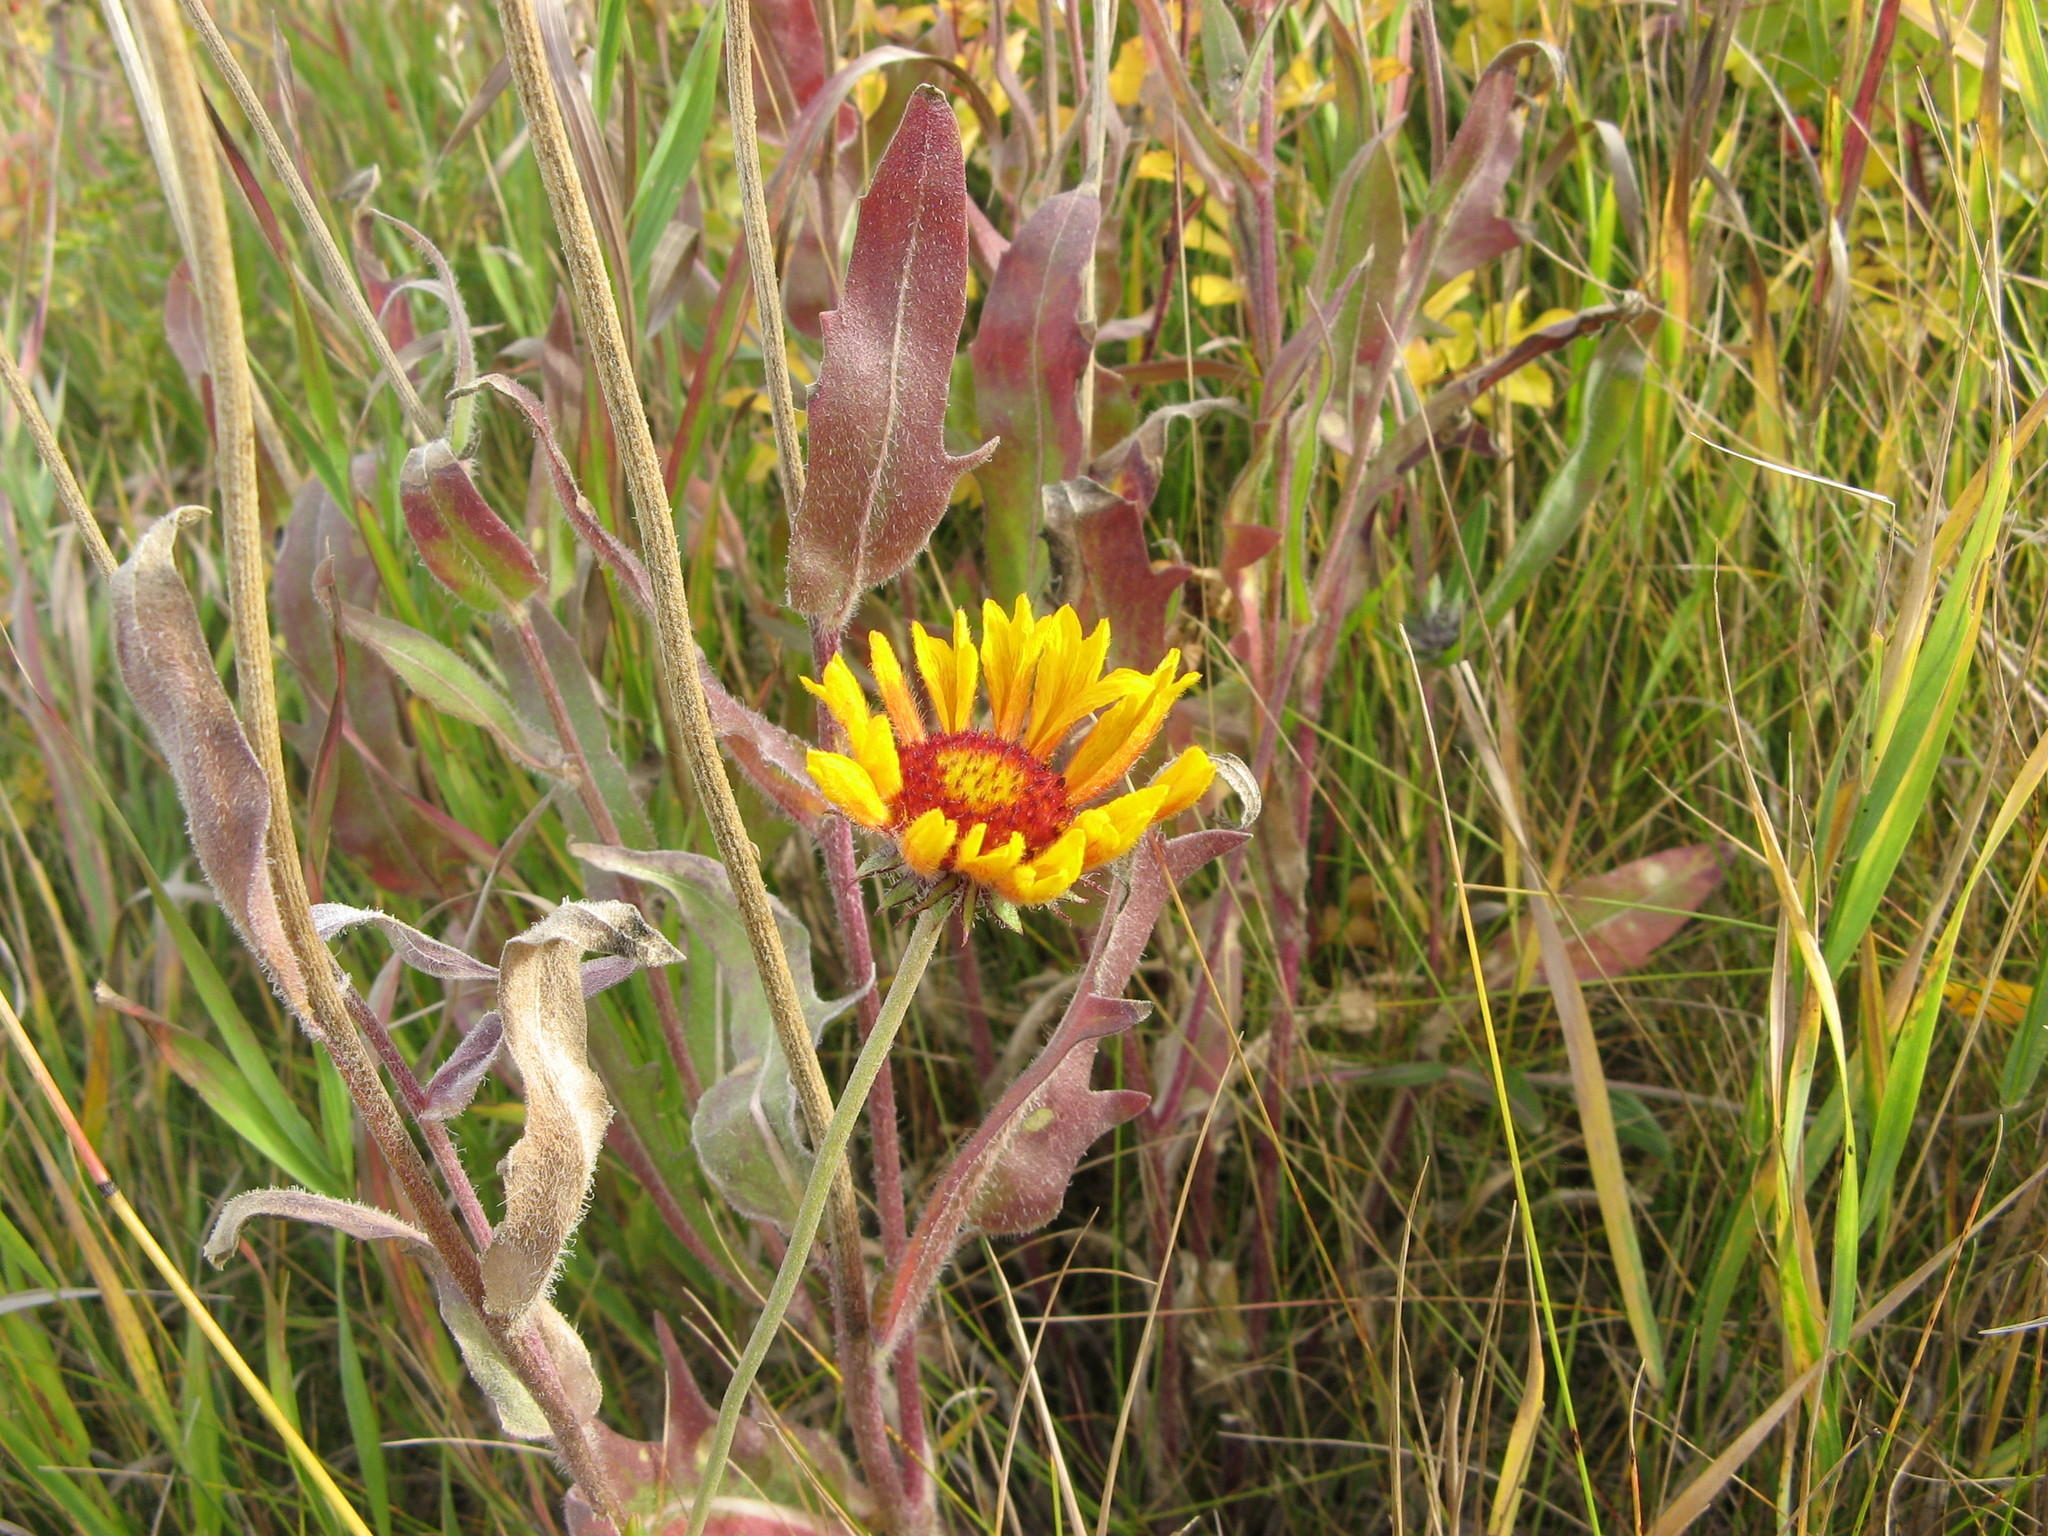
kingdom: Plantae
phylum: Tracheophyta
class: Magnoliopsida
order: Asterales
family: Asteraceae
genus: Gaillardia
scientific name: Gaillardia aristata
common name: Blanket-flower
